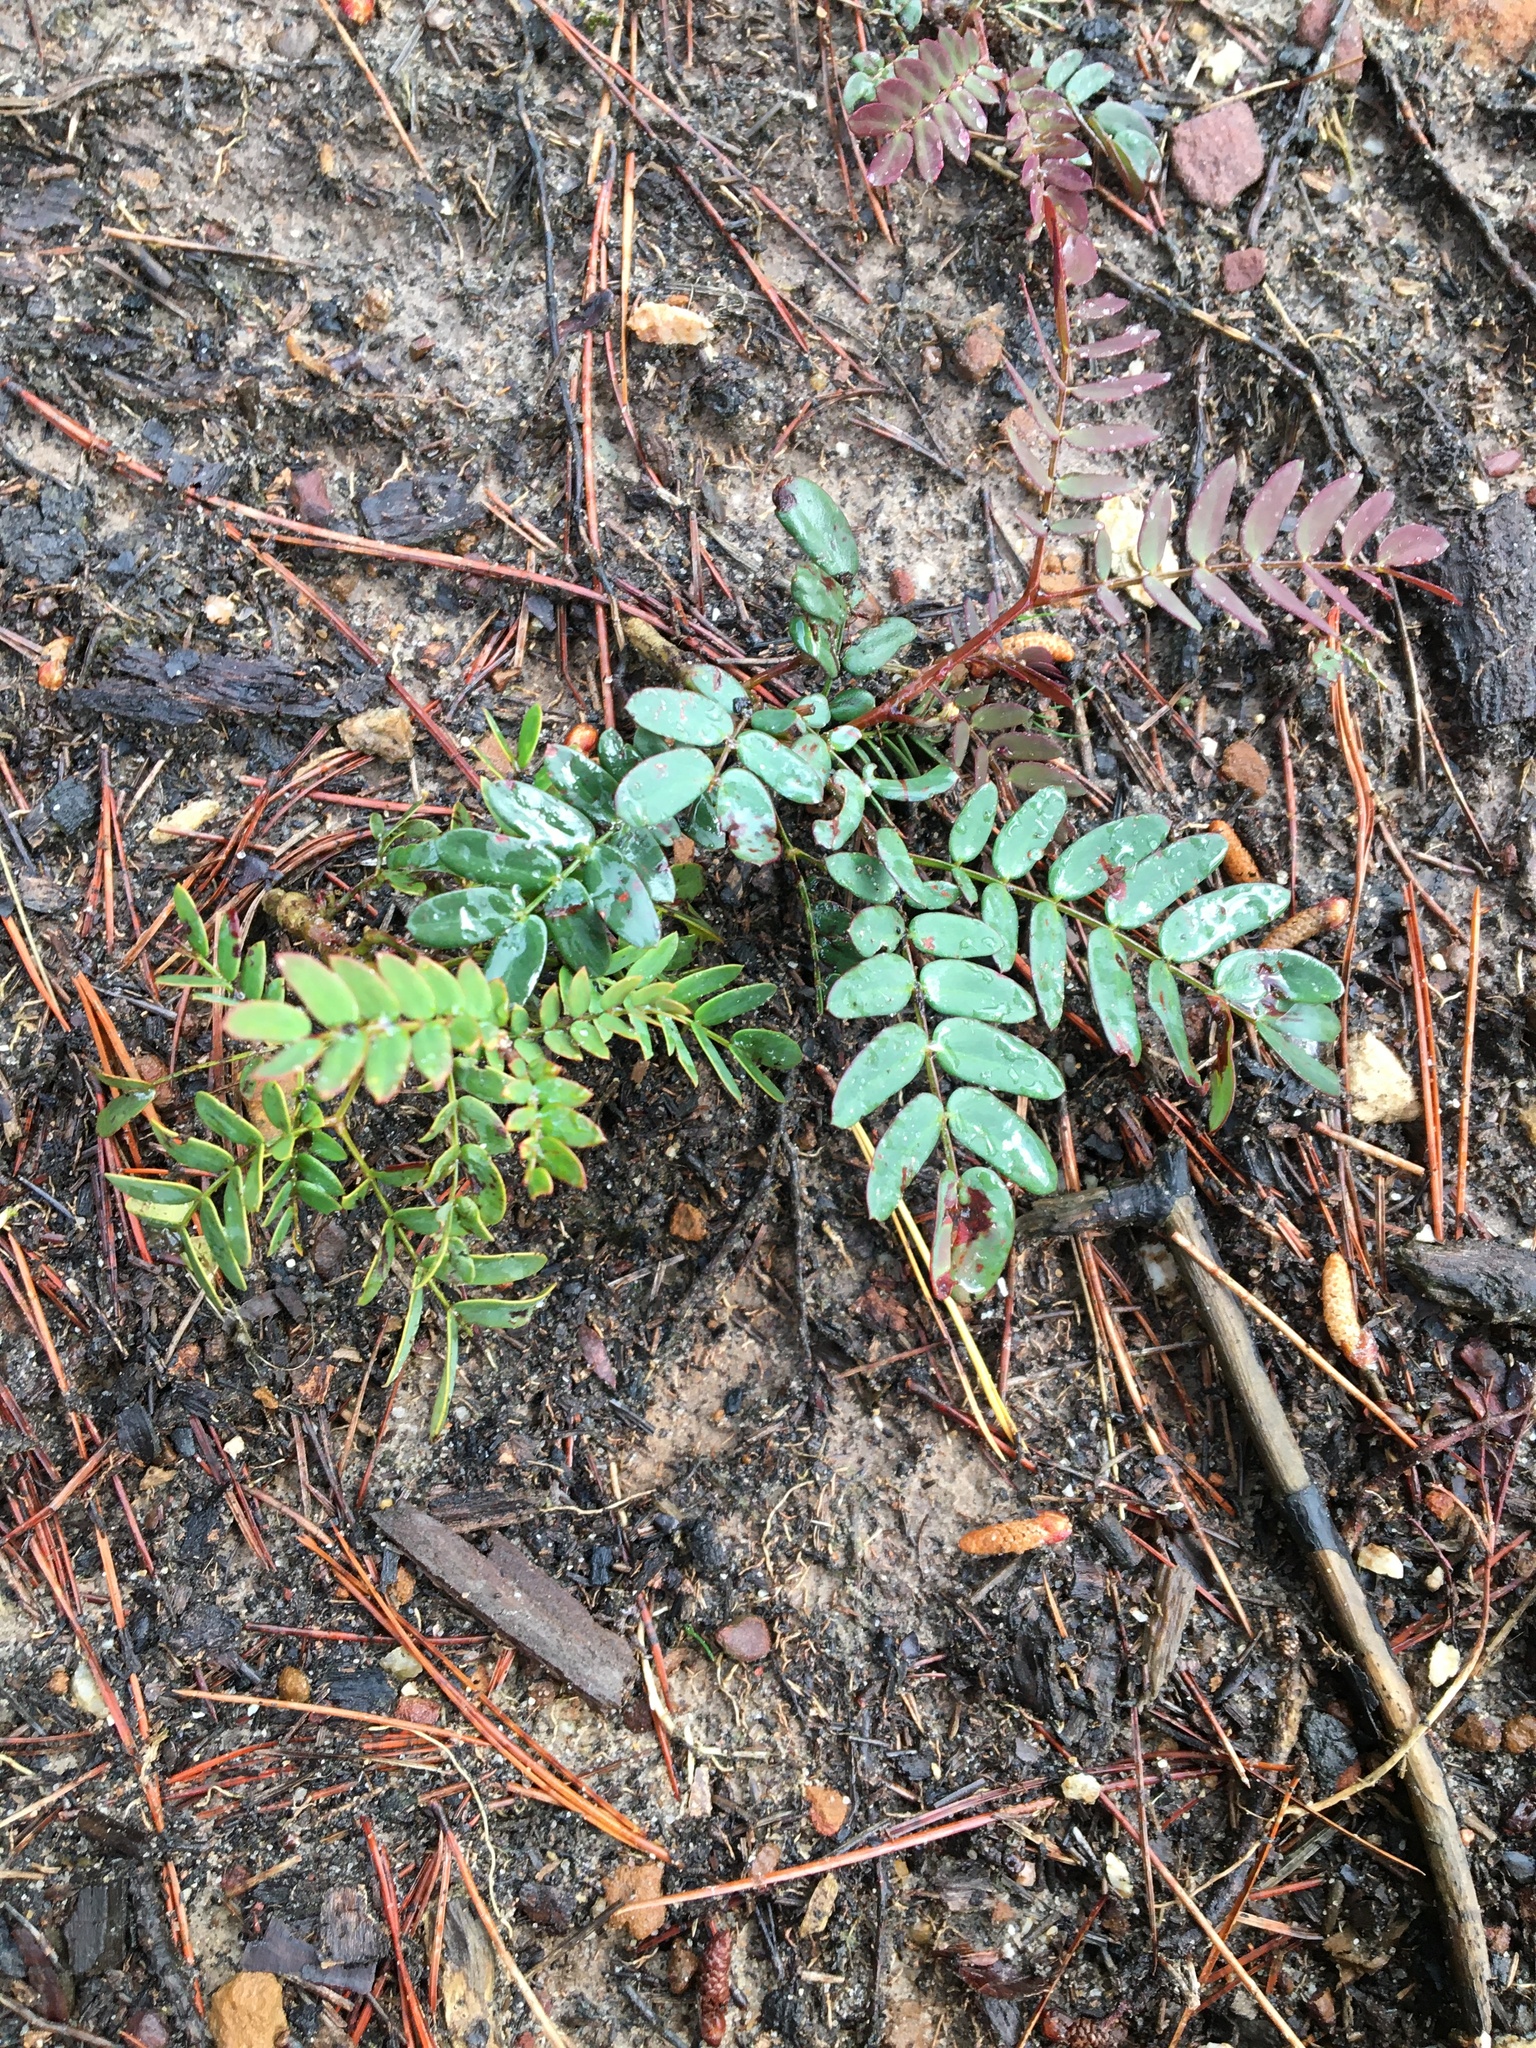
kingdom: Plantae
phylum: Tracheophyta
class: Magnoliopsida
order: Fabales
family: Fabaceae
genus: Acacia
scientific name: Acacia elata
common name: Cedar wattle
